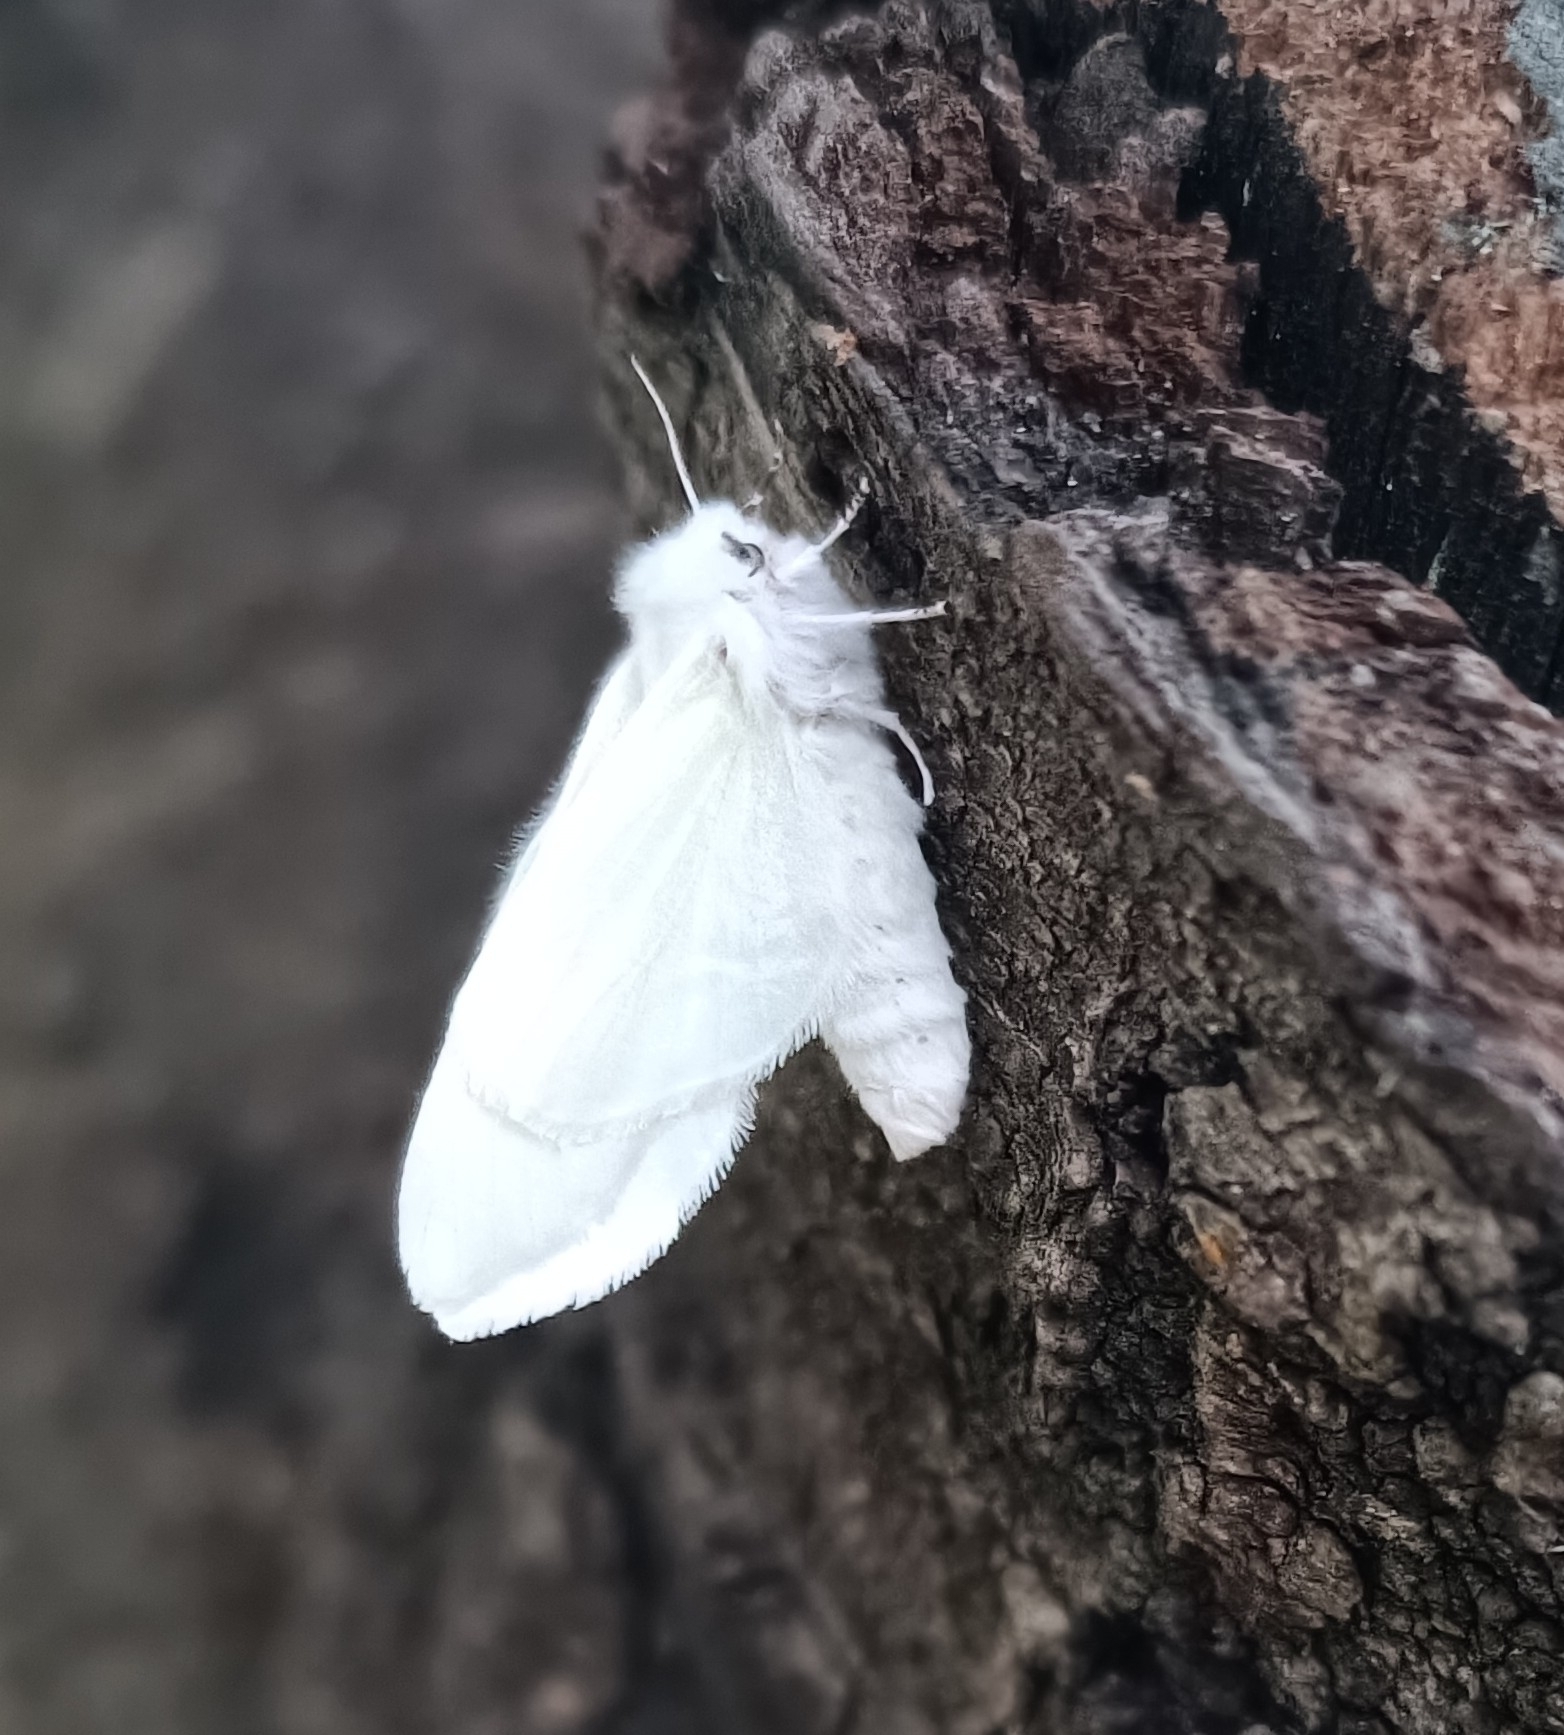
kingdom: Animalia
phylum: Arthropoda
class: Insecta
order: Lepidoptera
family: Erebidae
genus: Hyphantria
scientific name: Hyphantria cunea
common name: American white moth
